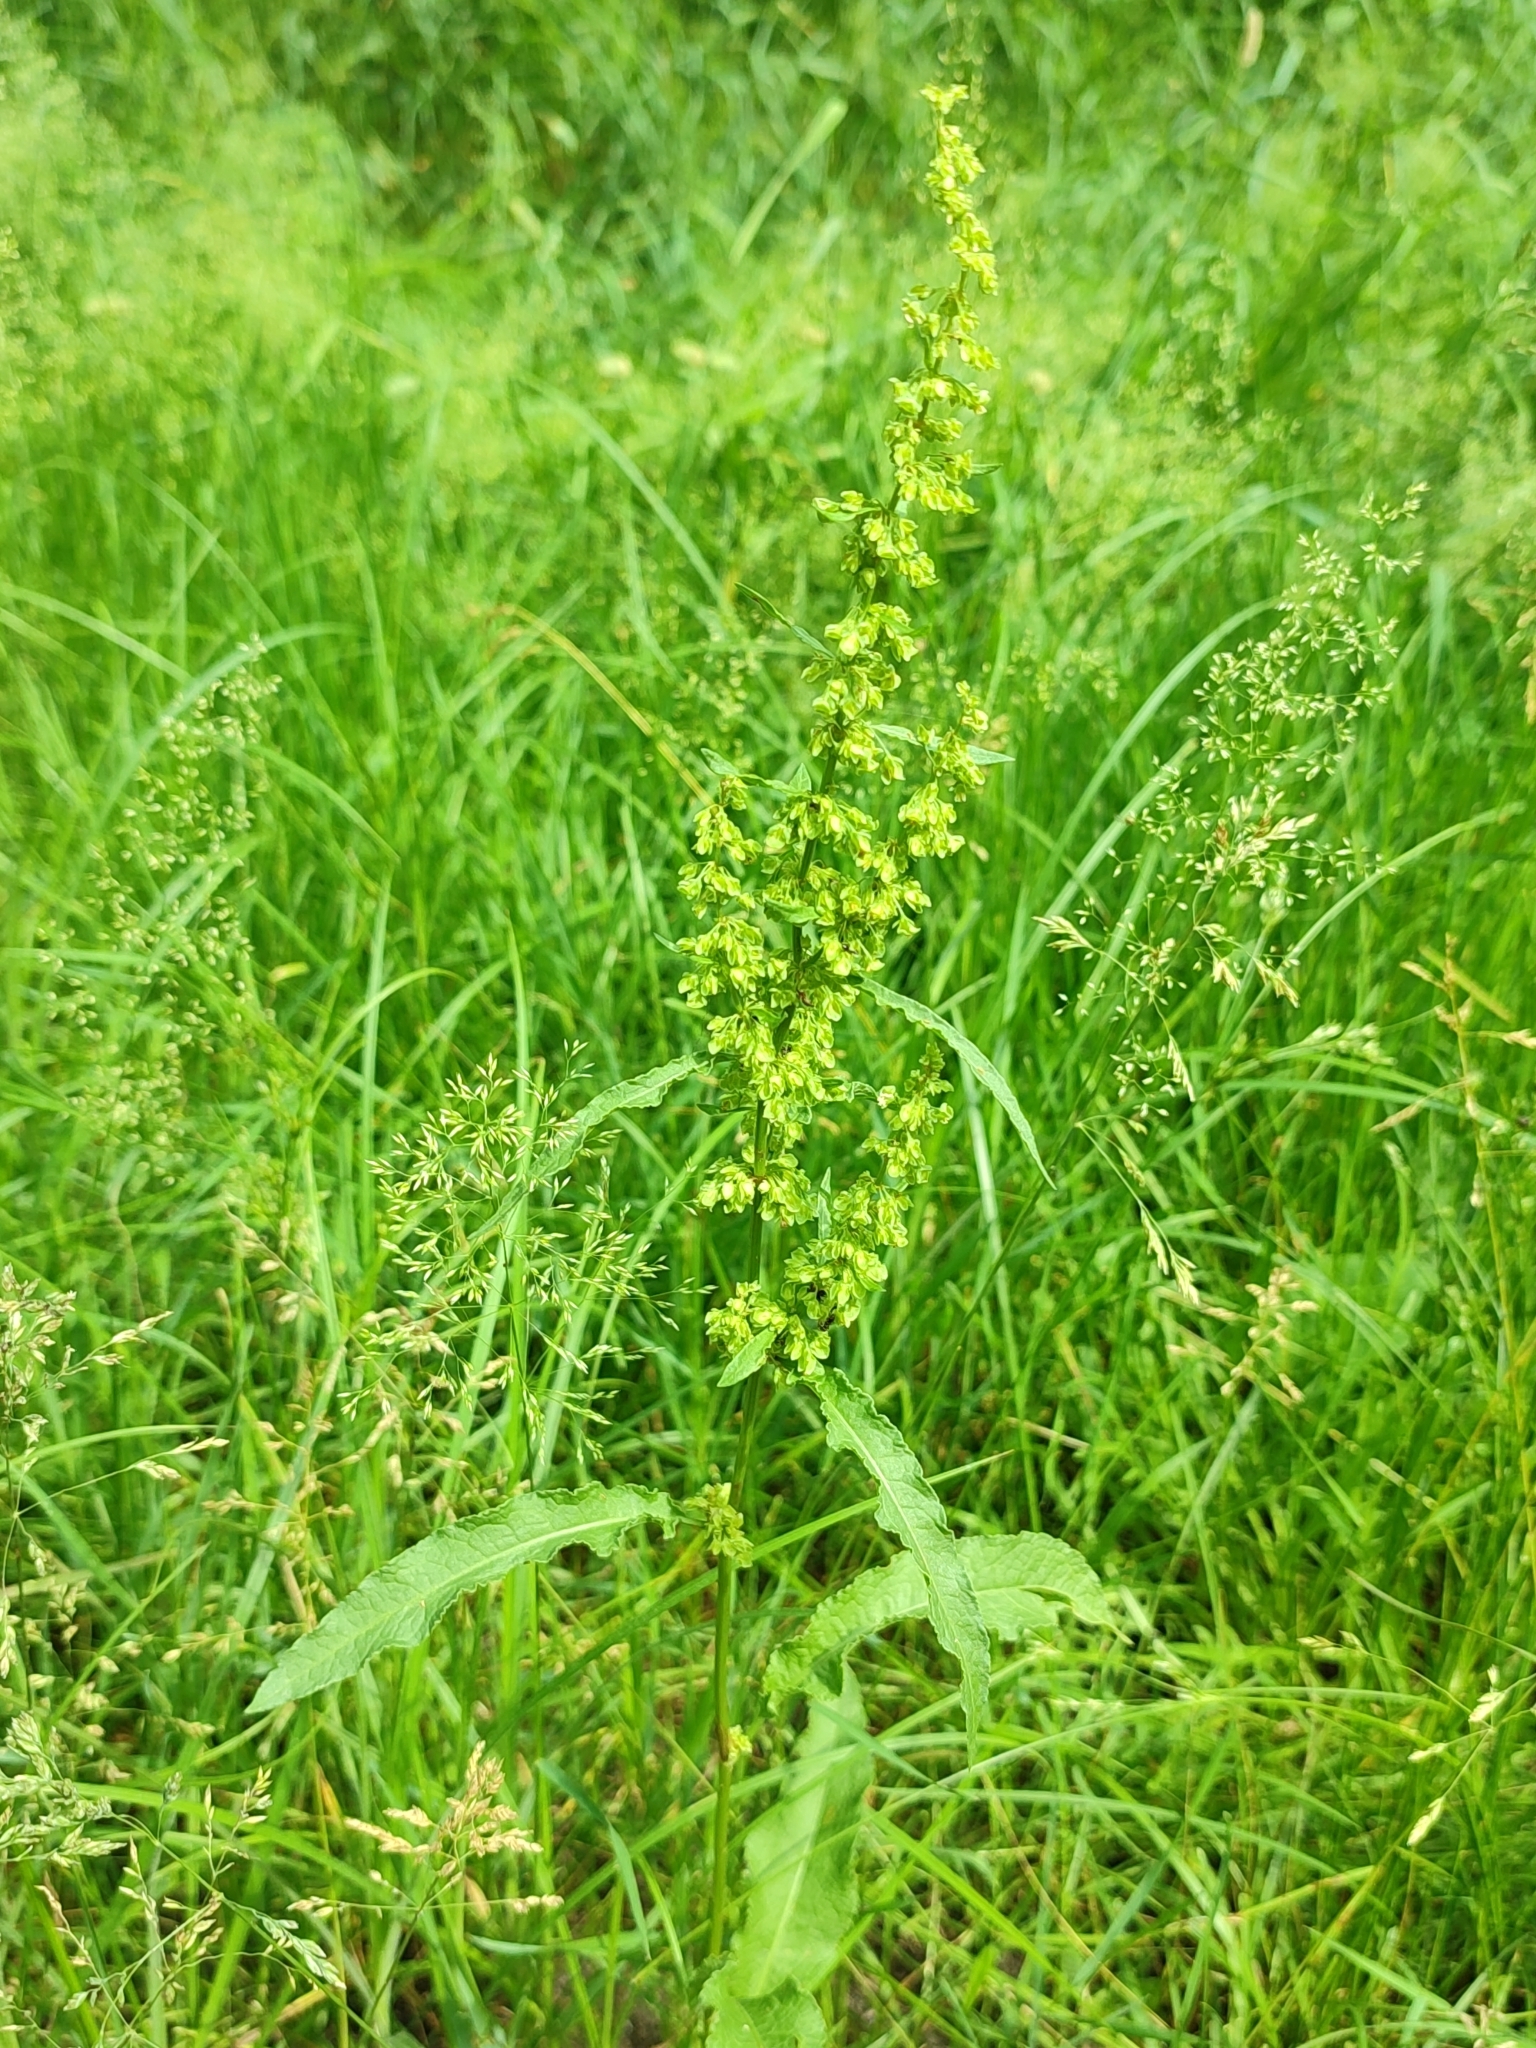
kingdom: Plantae
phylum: Tracheophyta
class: Magnoliopsida
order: Caryophyllales
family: Polygonaceae
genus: Rumex
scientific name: Rumex crispus
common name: Curled dock
